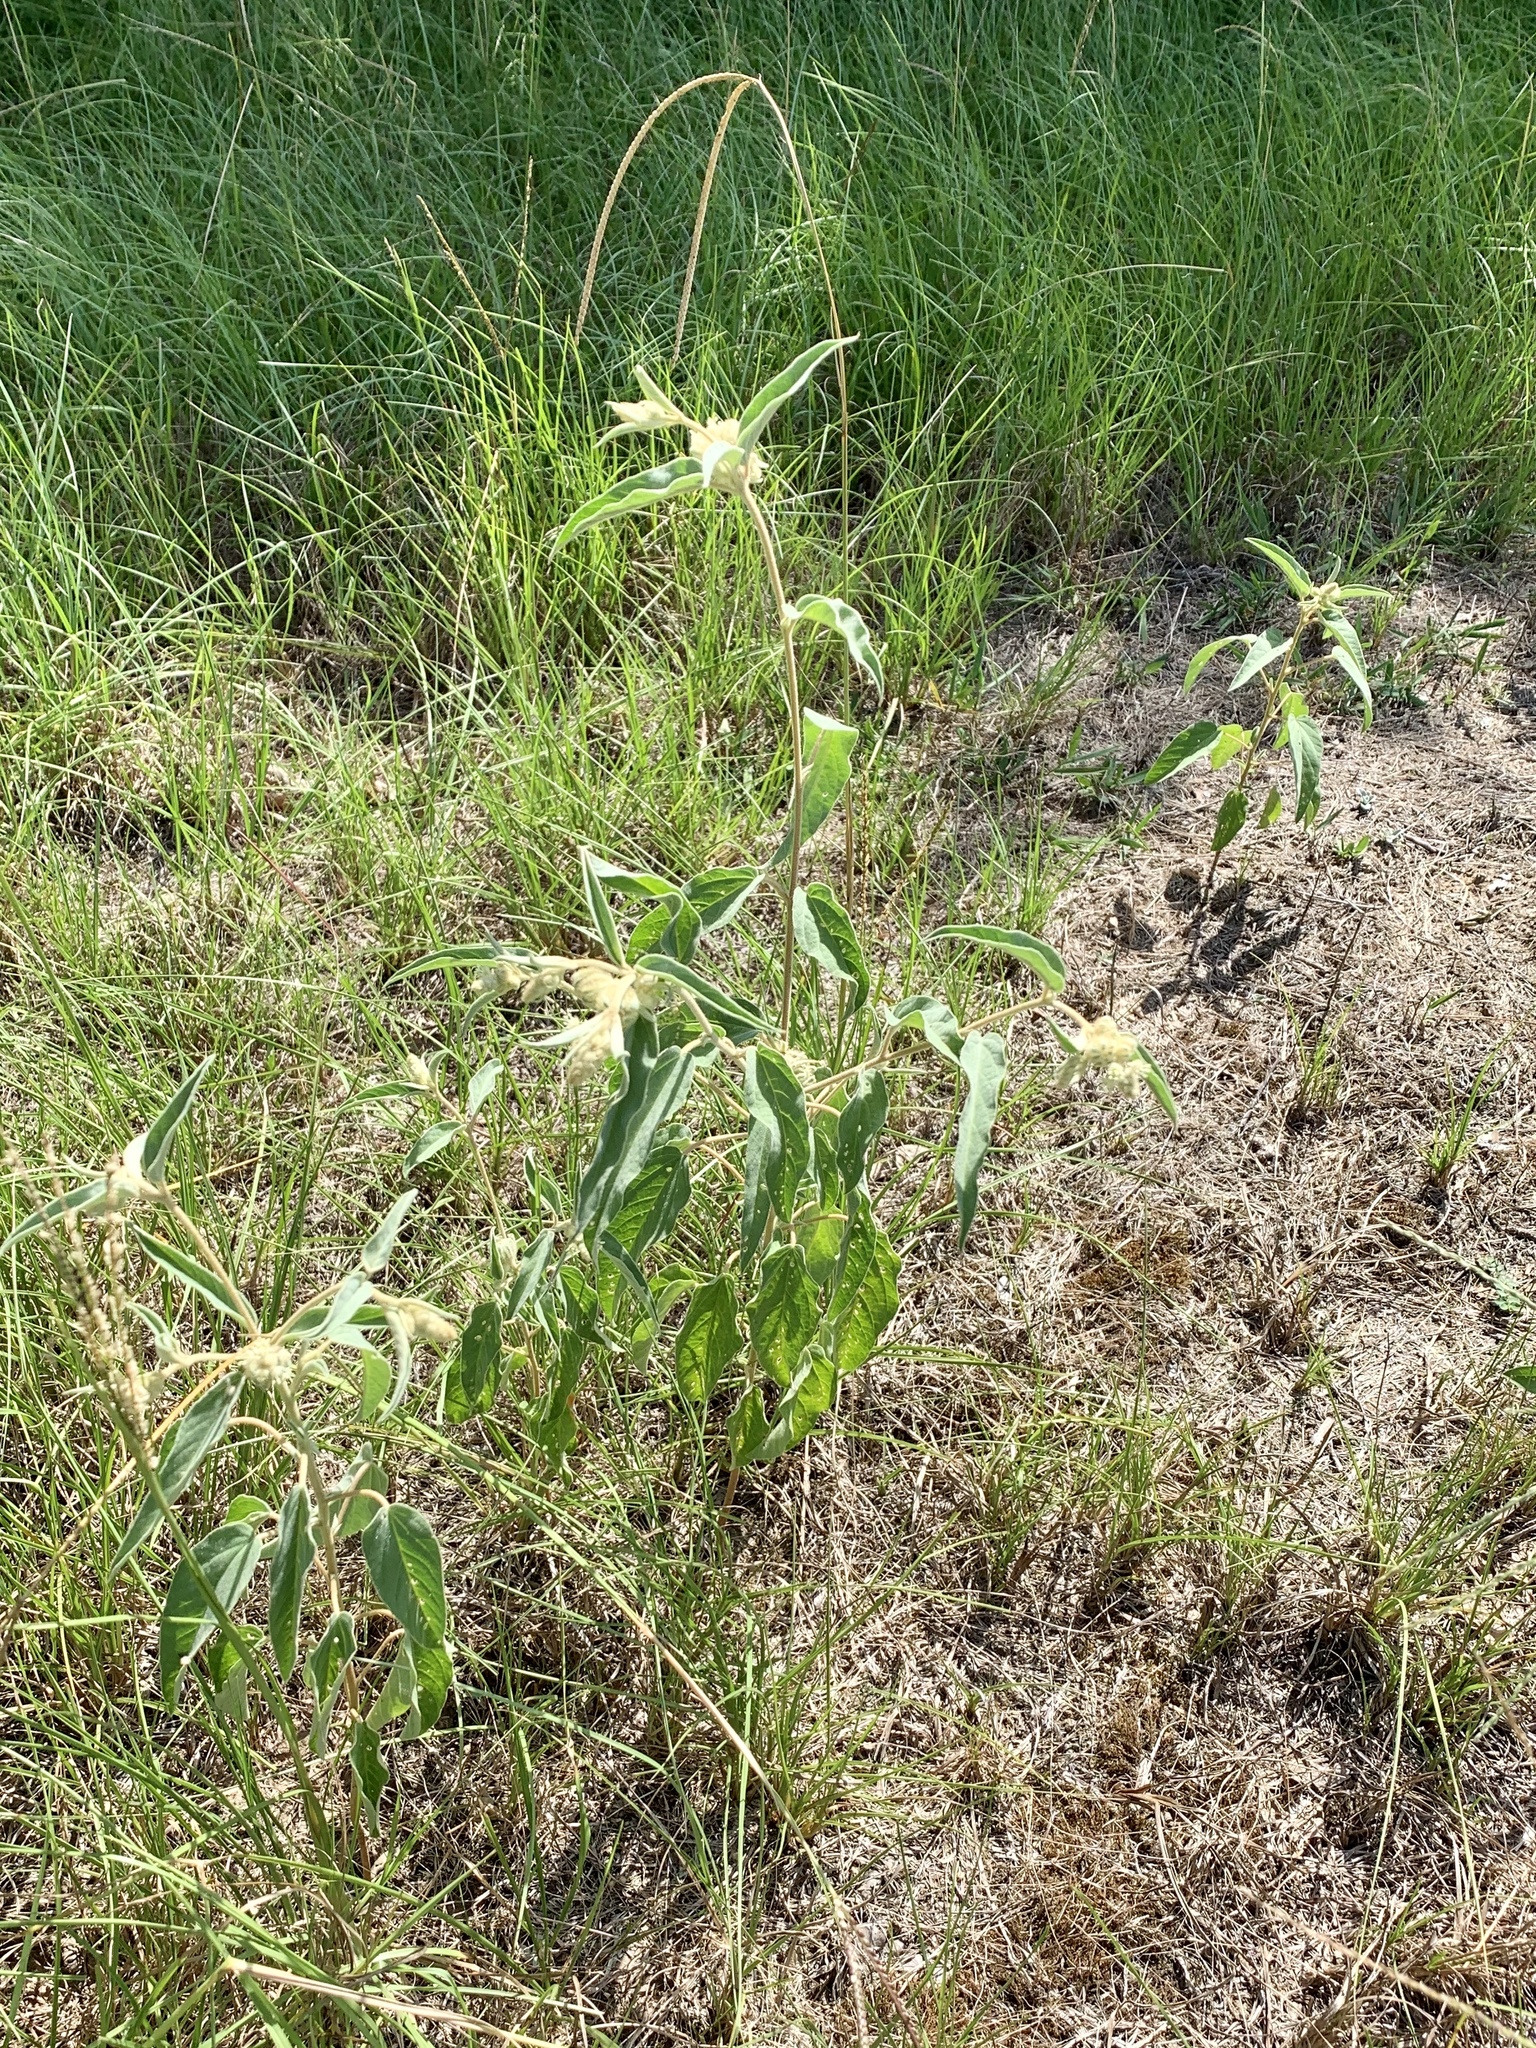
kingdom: Plantae
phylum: Tracheophyta
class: Magnoliopsida
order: Malpighiales
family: Euphorbiaceae
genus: Croton
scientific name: Croton lindheimeri
